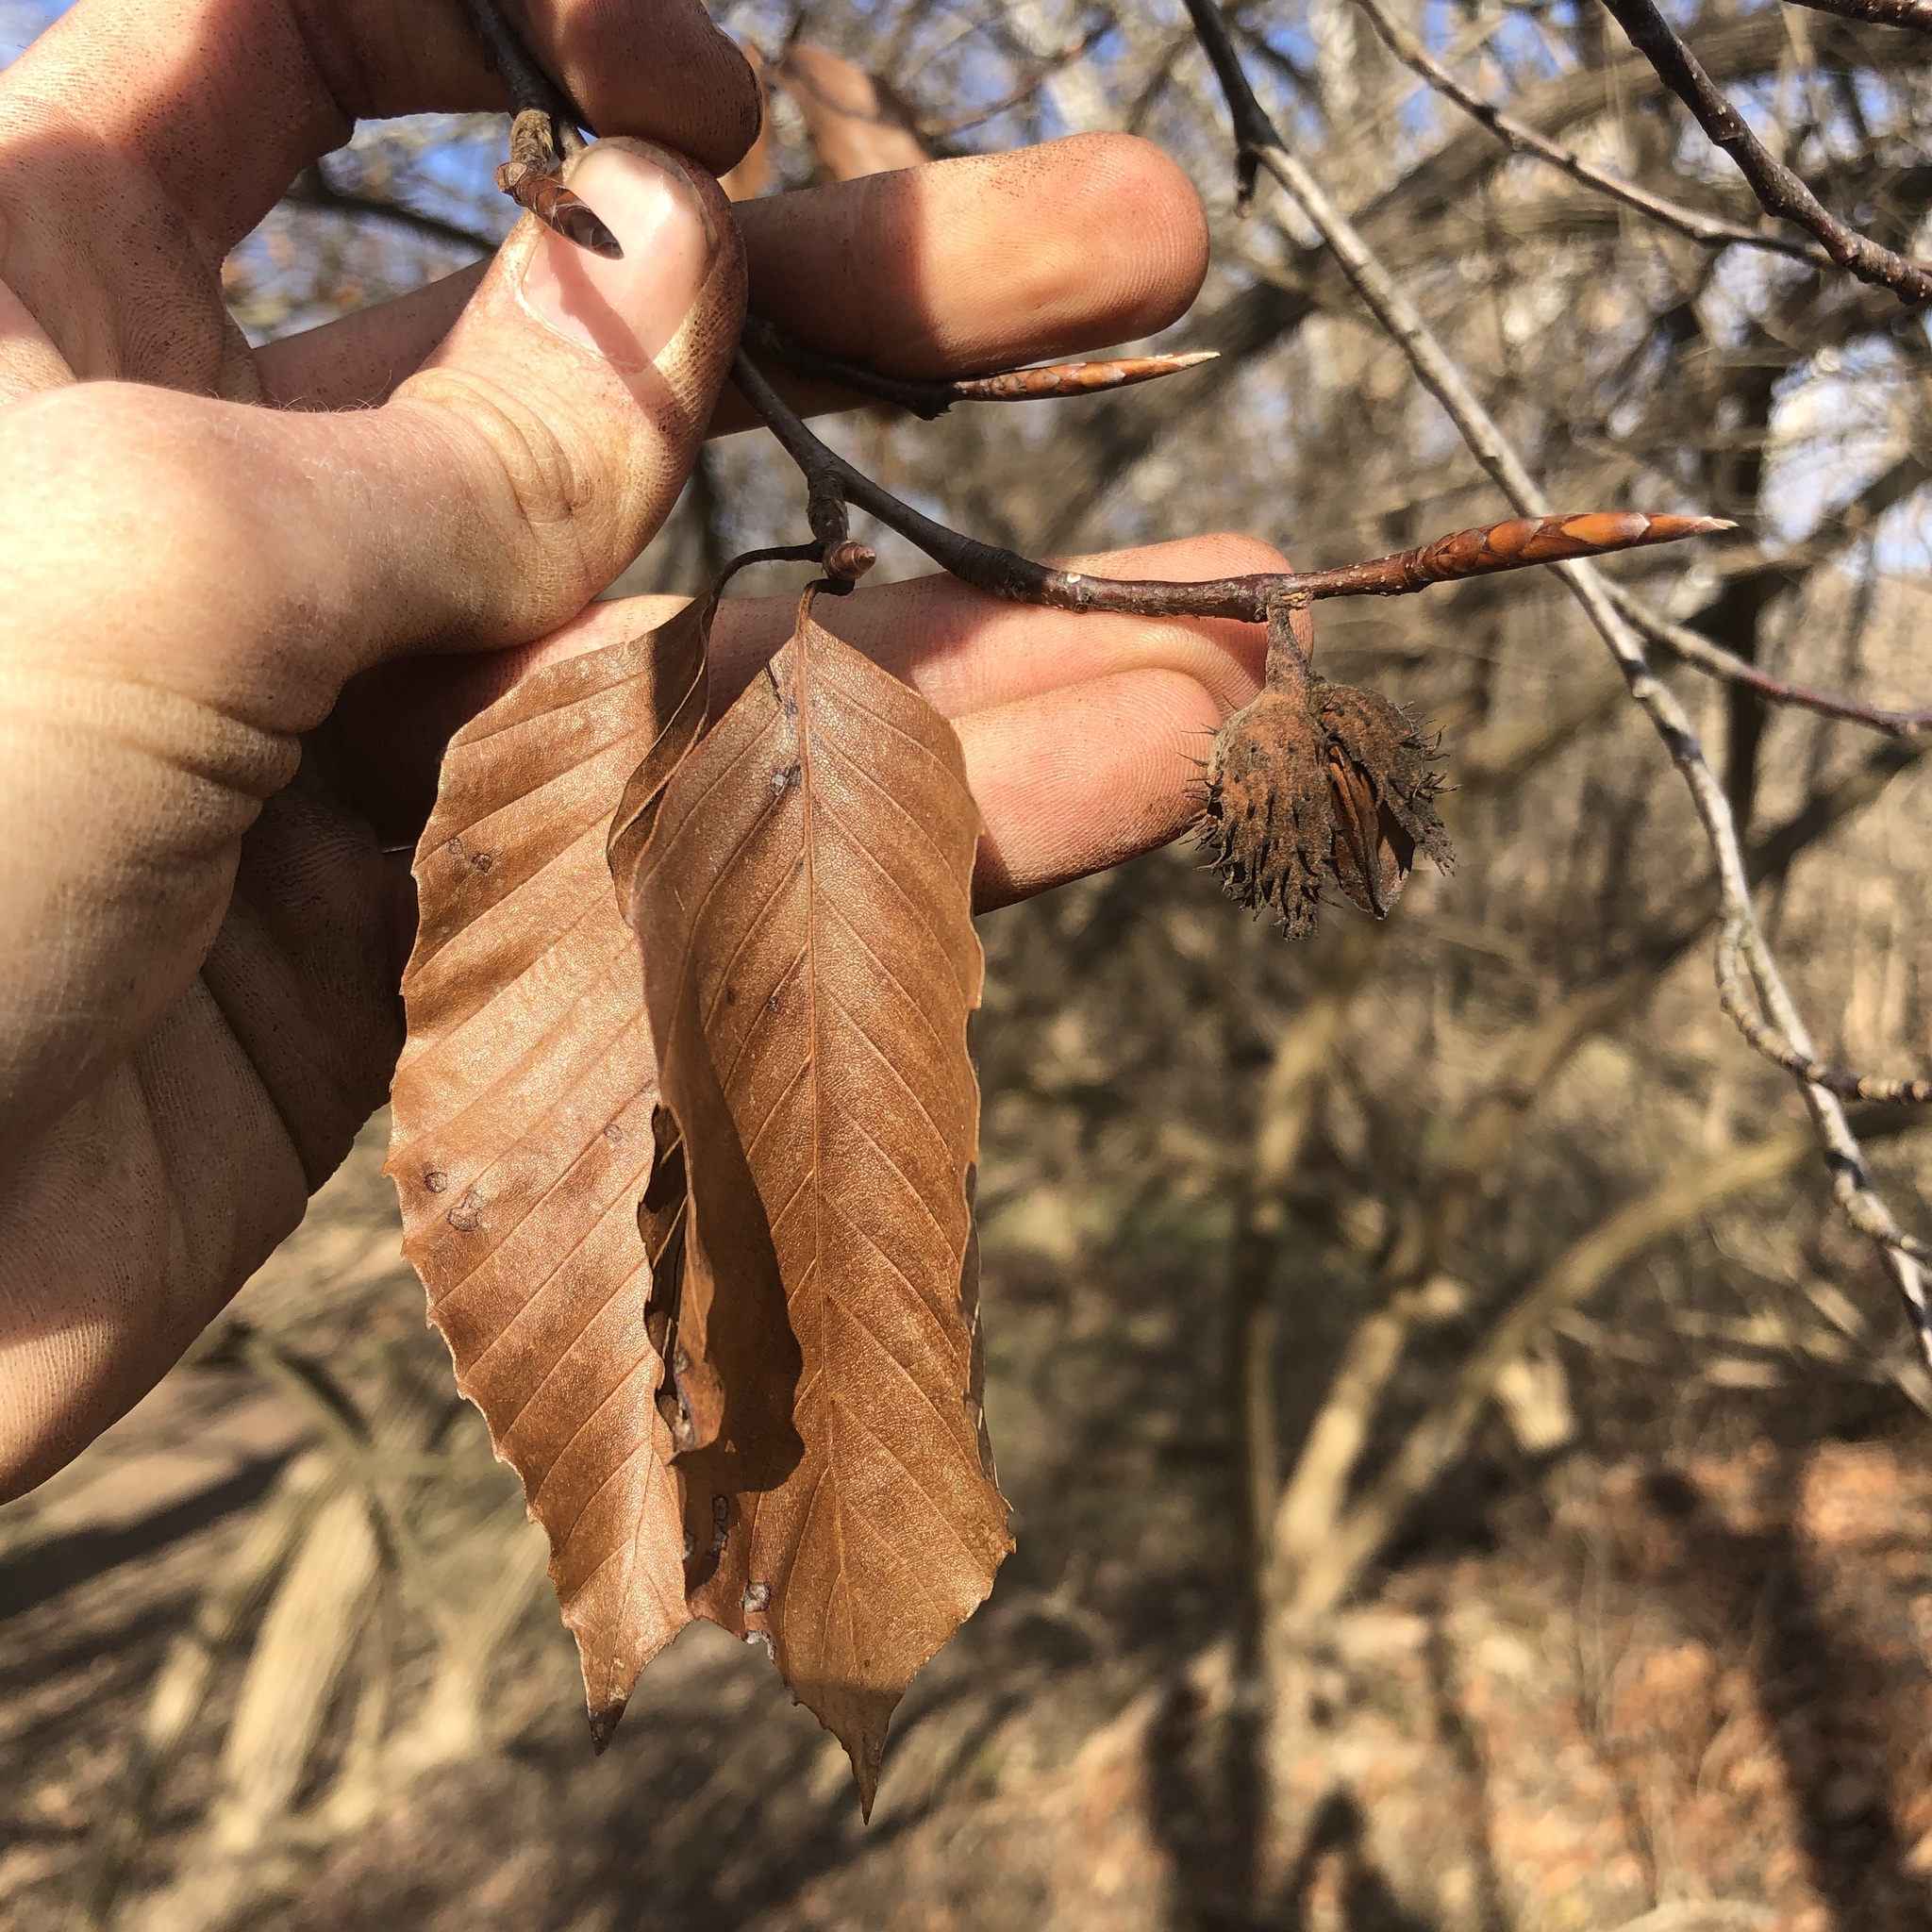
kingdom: Plantae
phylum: Tracheophyta
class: Magnoliopsida
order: Fagales
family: Fagaceae
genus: Fagus
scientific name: Fagus grandifolia
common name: American beech
